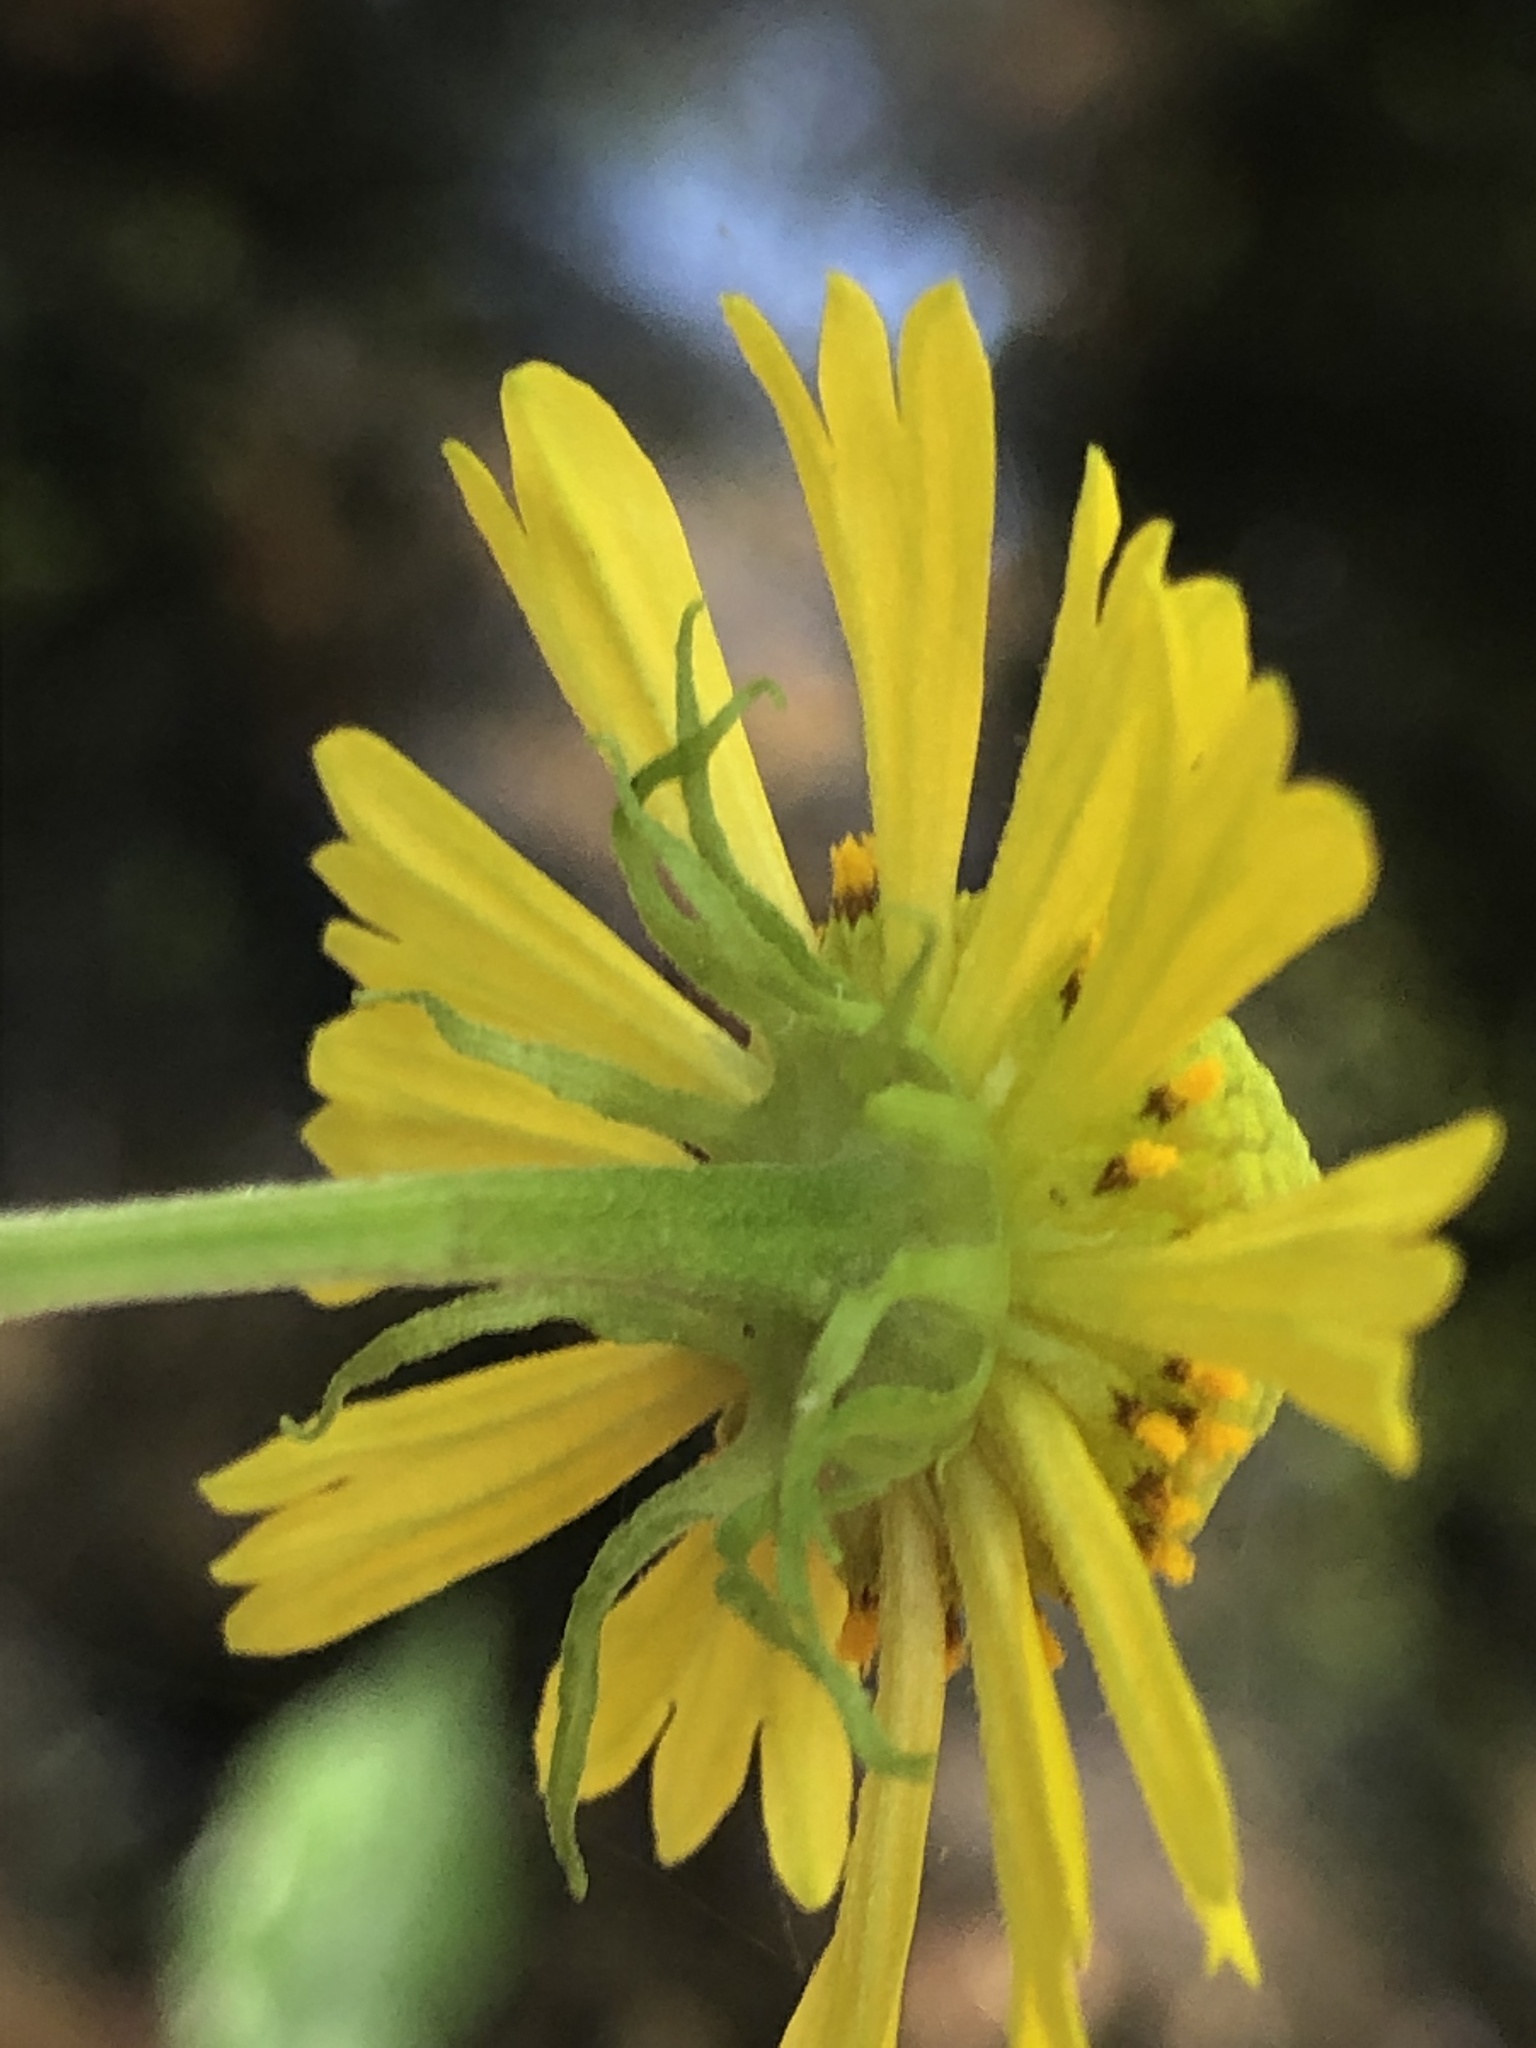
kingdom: Plantae
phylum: Tracheophyta
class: Magnoliopsida
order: Asterales
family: Asteraceae
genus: Helenium
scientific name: Helenium autumnale
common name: Sneezeweed
